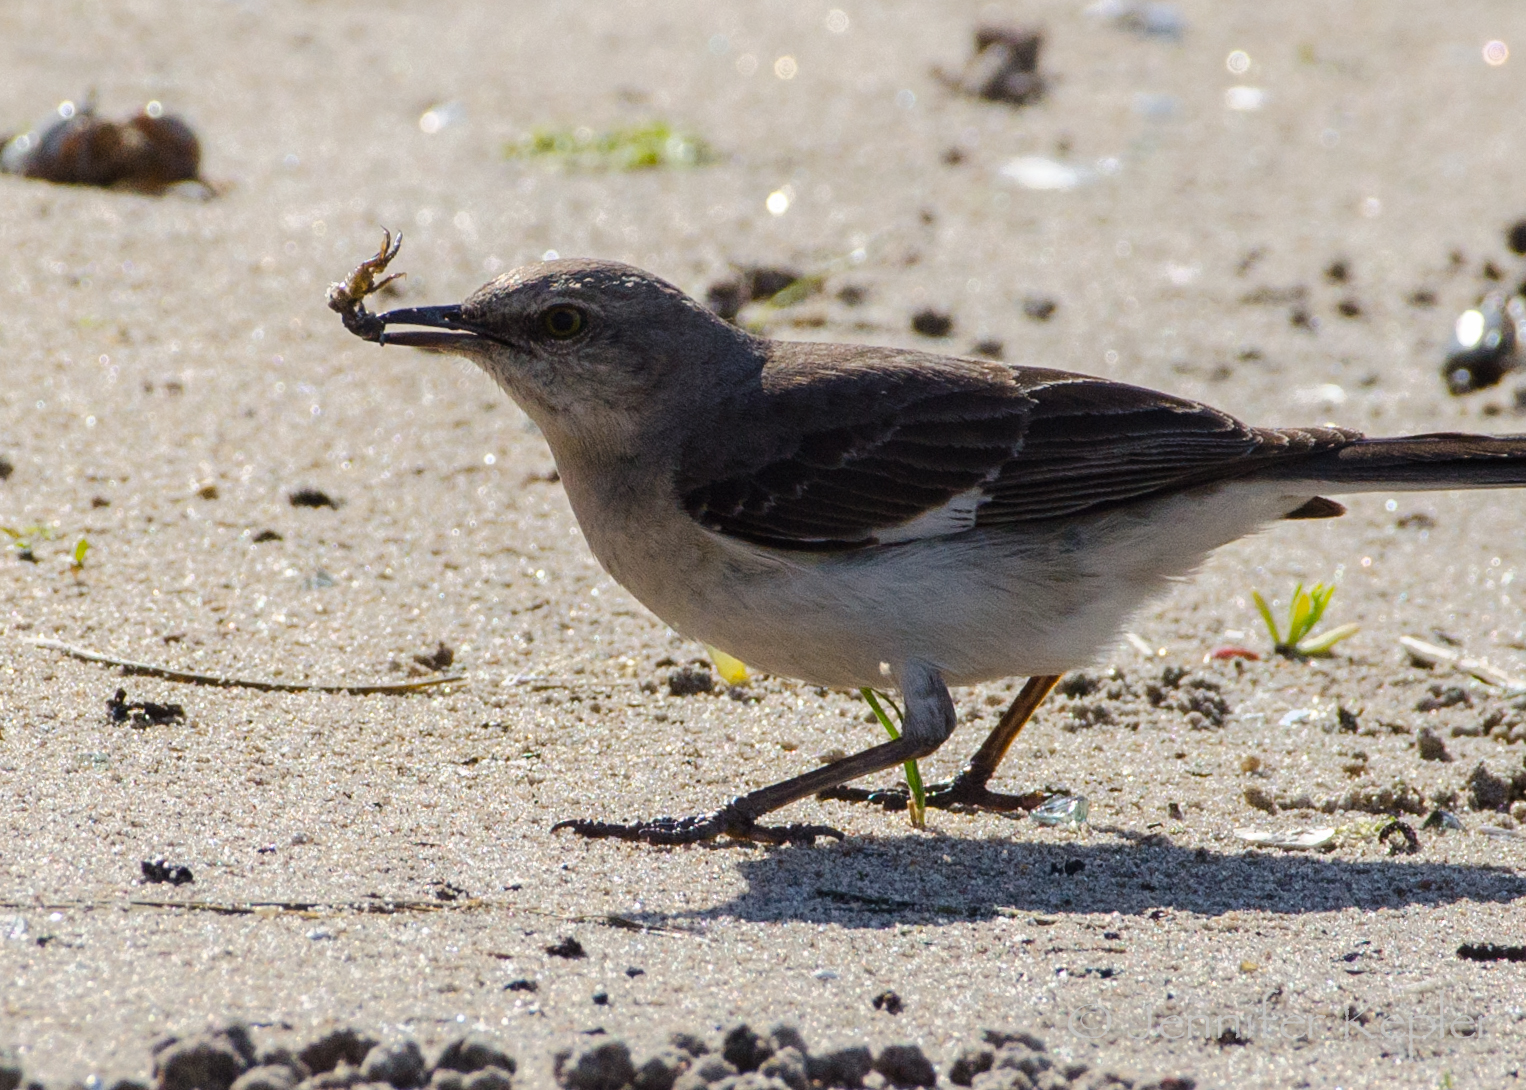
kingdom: Animalia
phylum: Chordata
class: Aves
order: Passeriformes
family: Mimidae
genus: Mimus
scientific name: Mimus polyglottos
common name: Northern mockingbird
